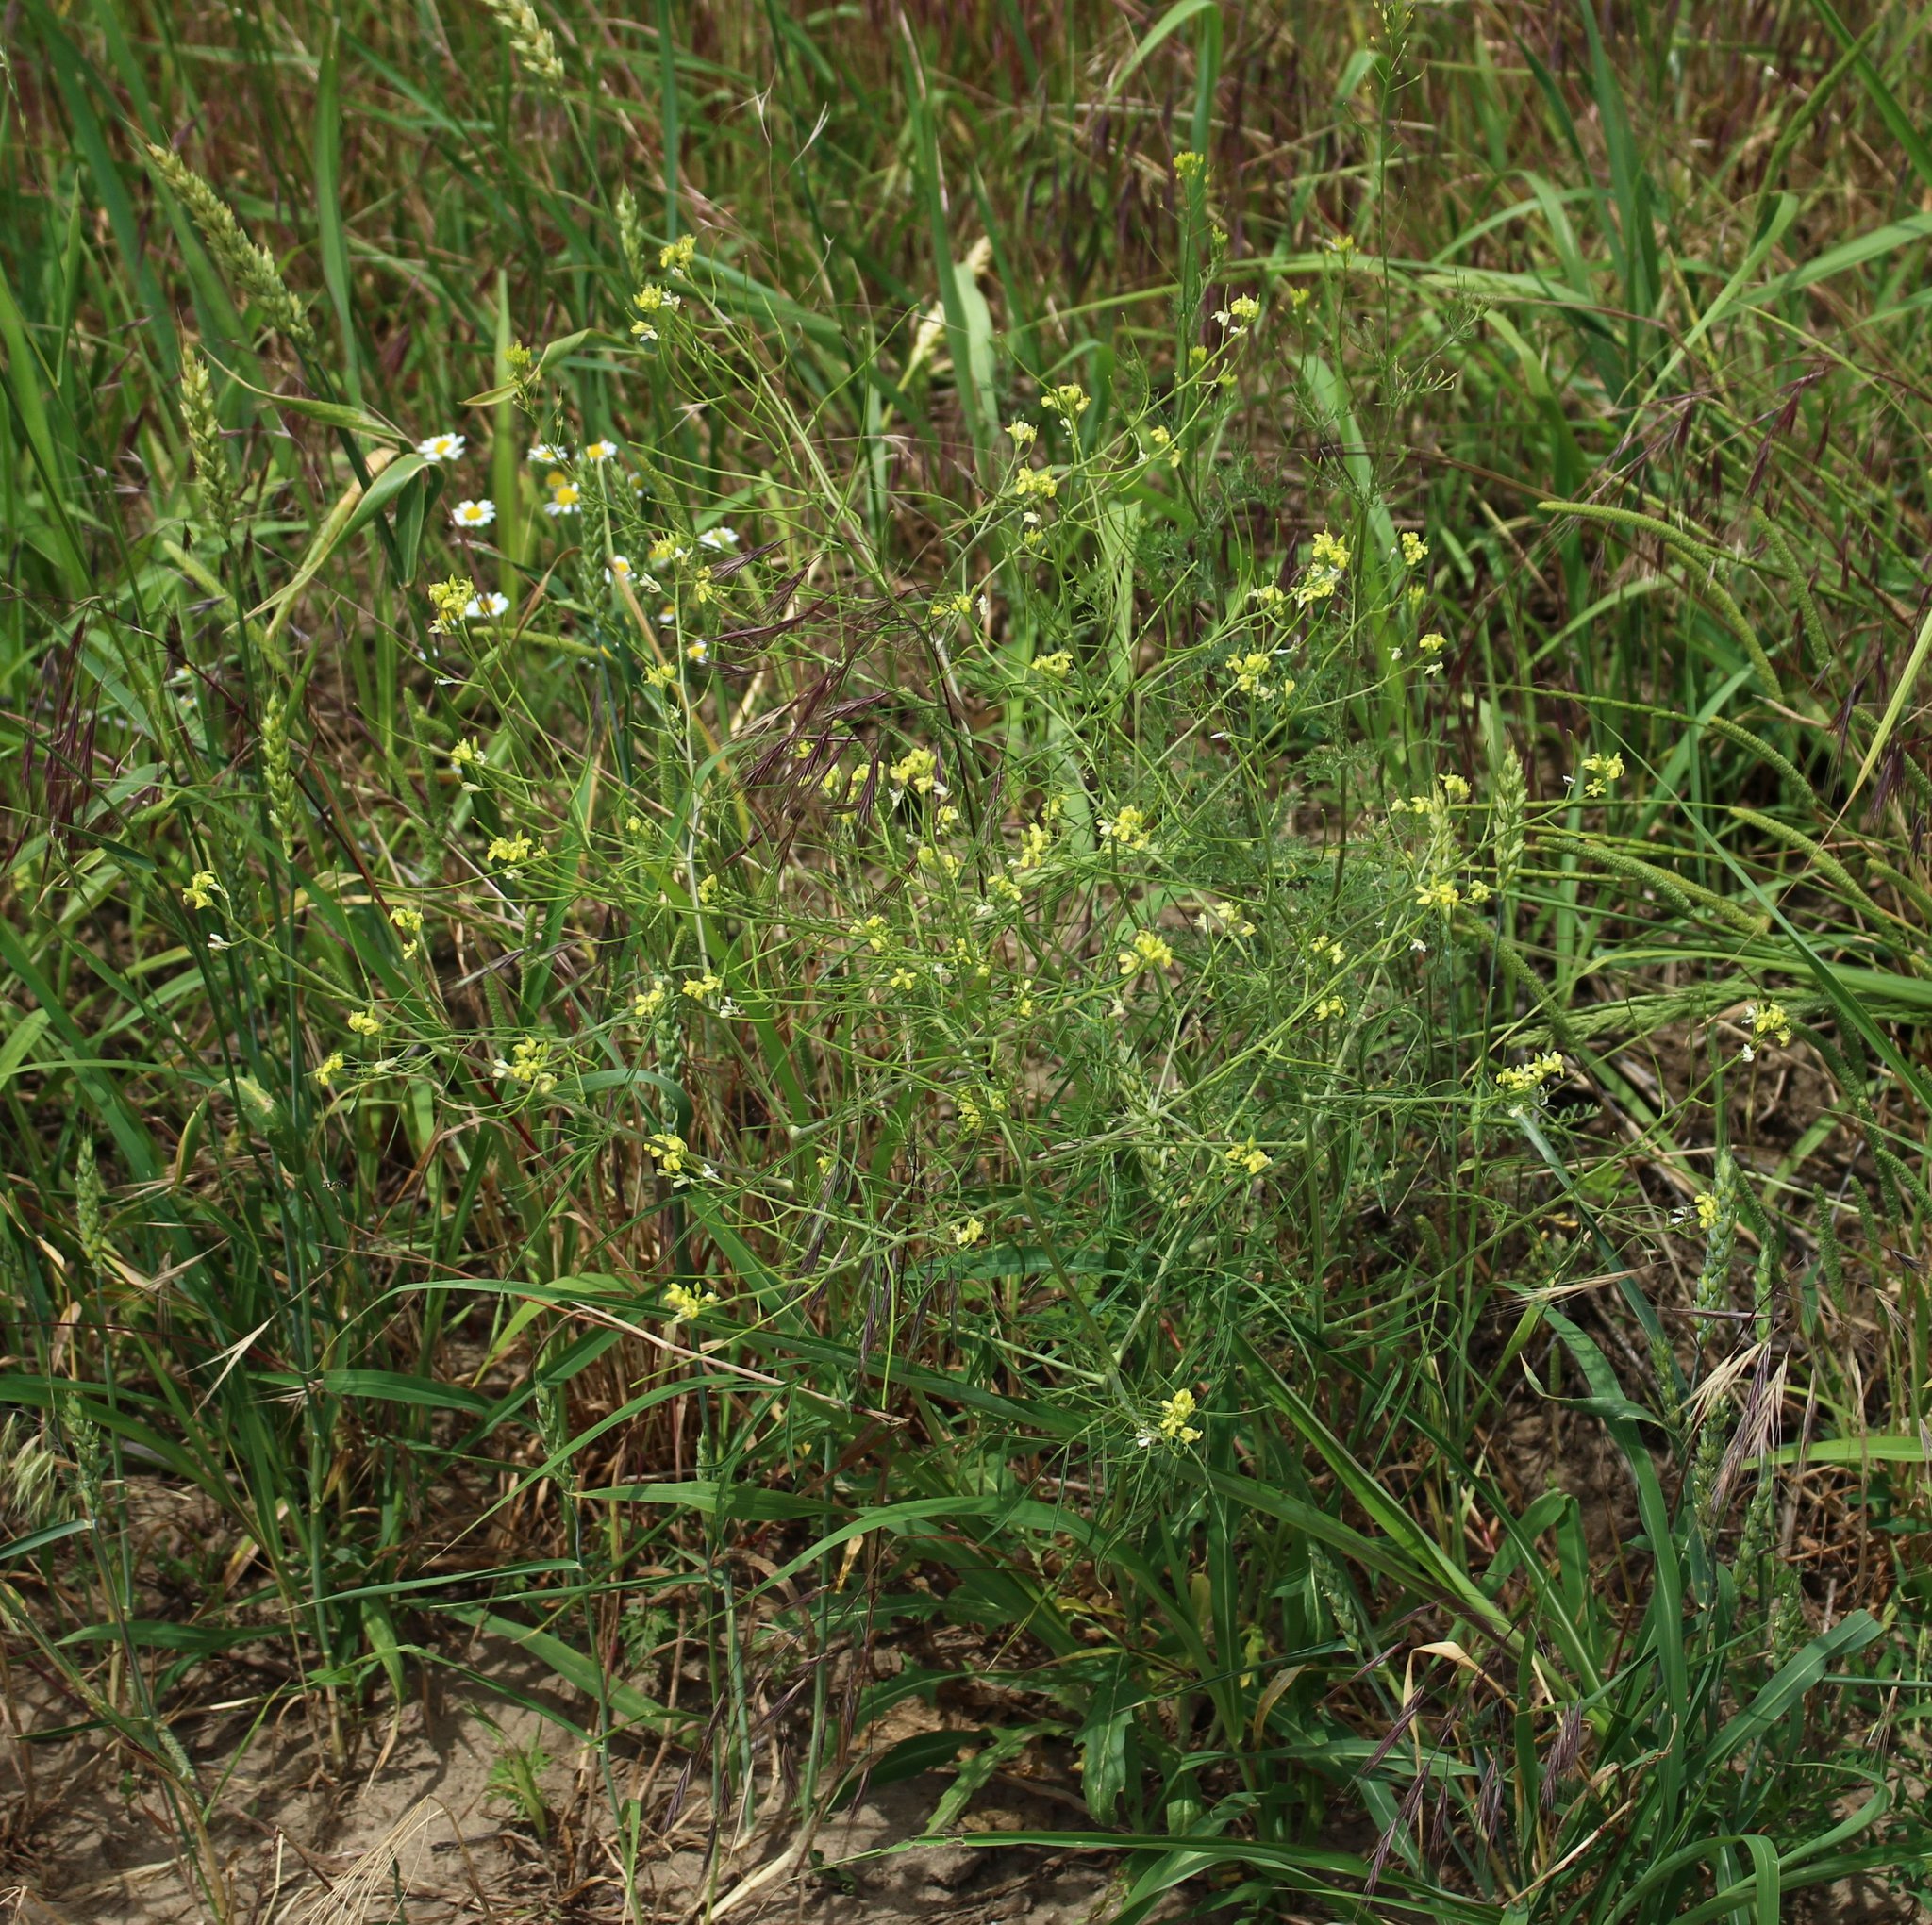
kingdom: Plantae
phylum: Tracheophyta
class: Magnoliopsida
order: Brassicales
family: Brassicaceae
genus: Sisymbrium
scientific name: Sisymbrium altissimum
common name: Tall rocket
